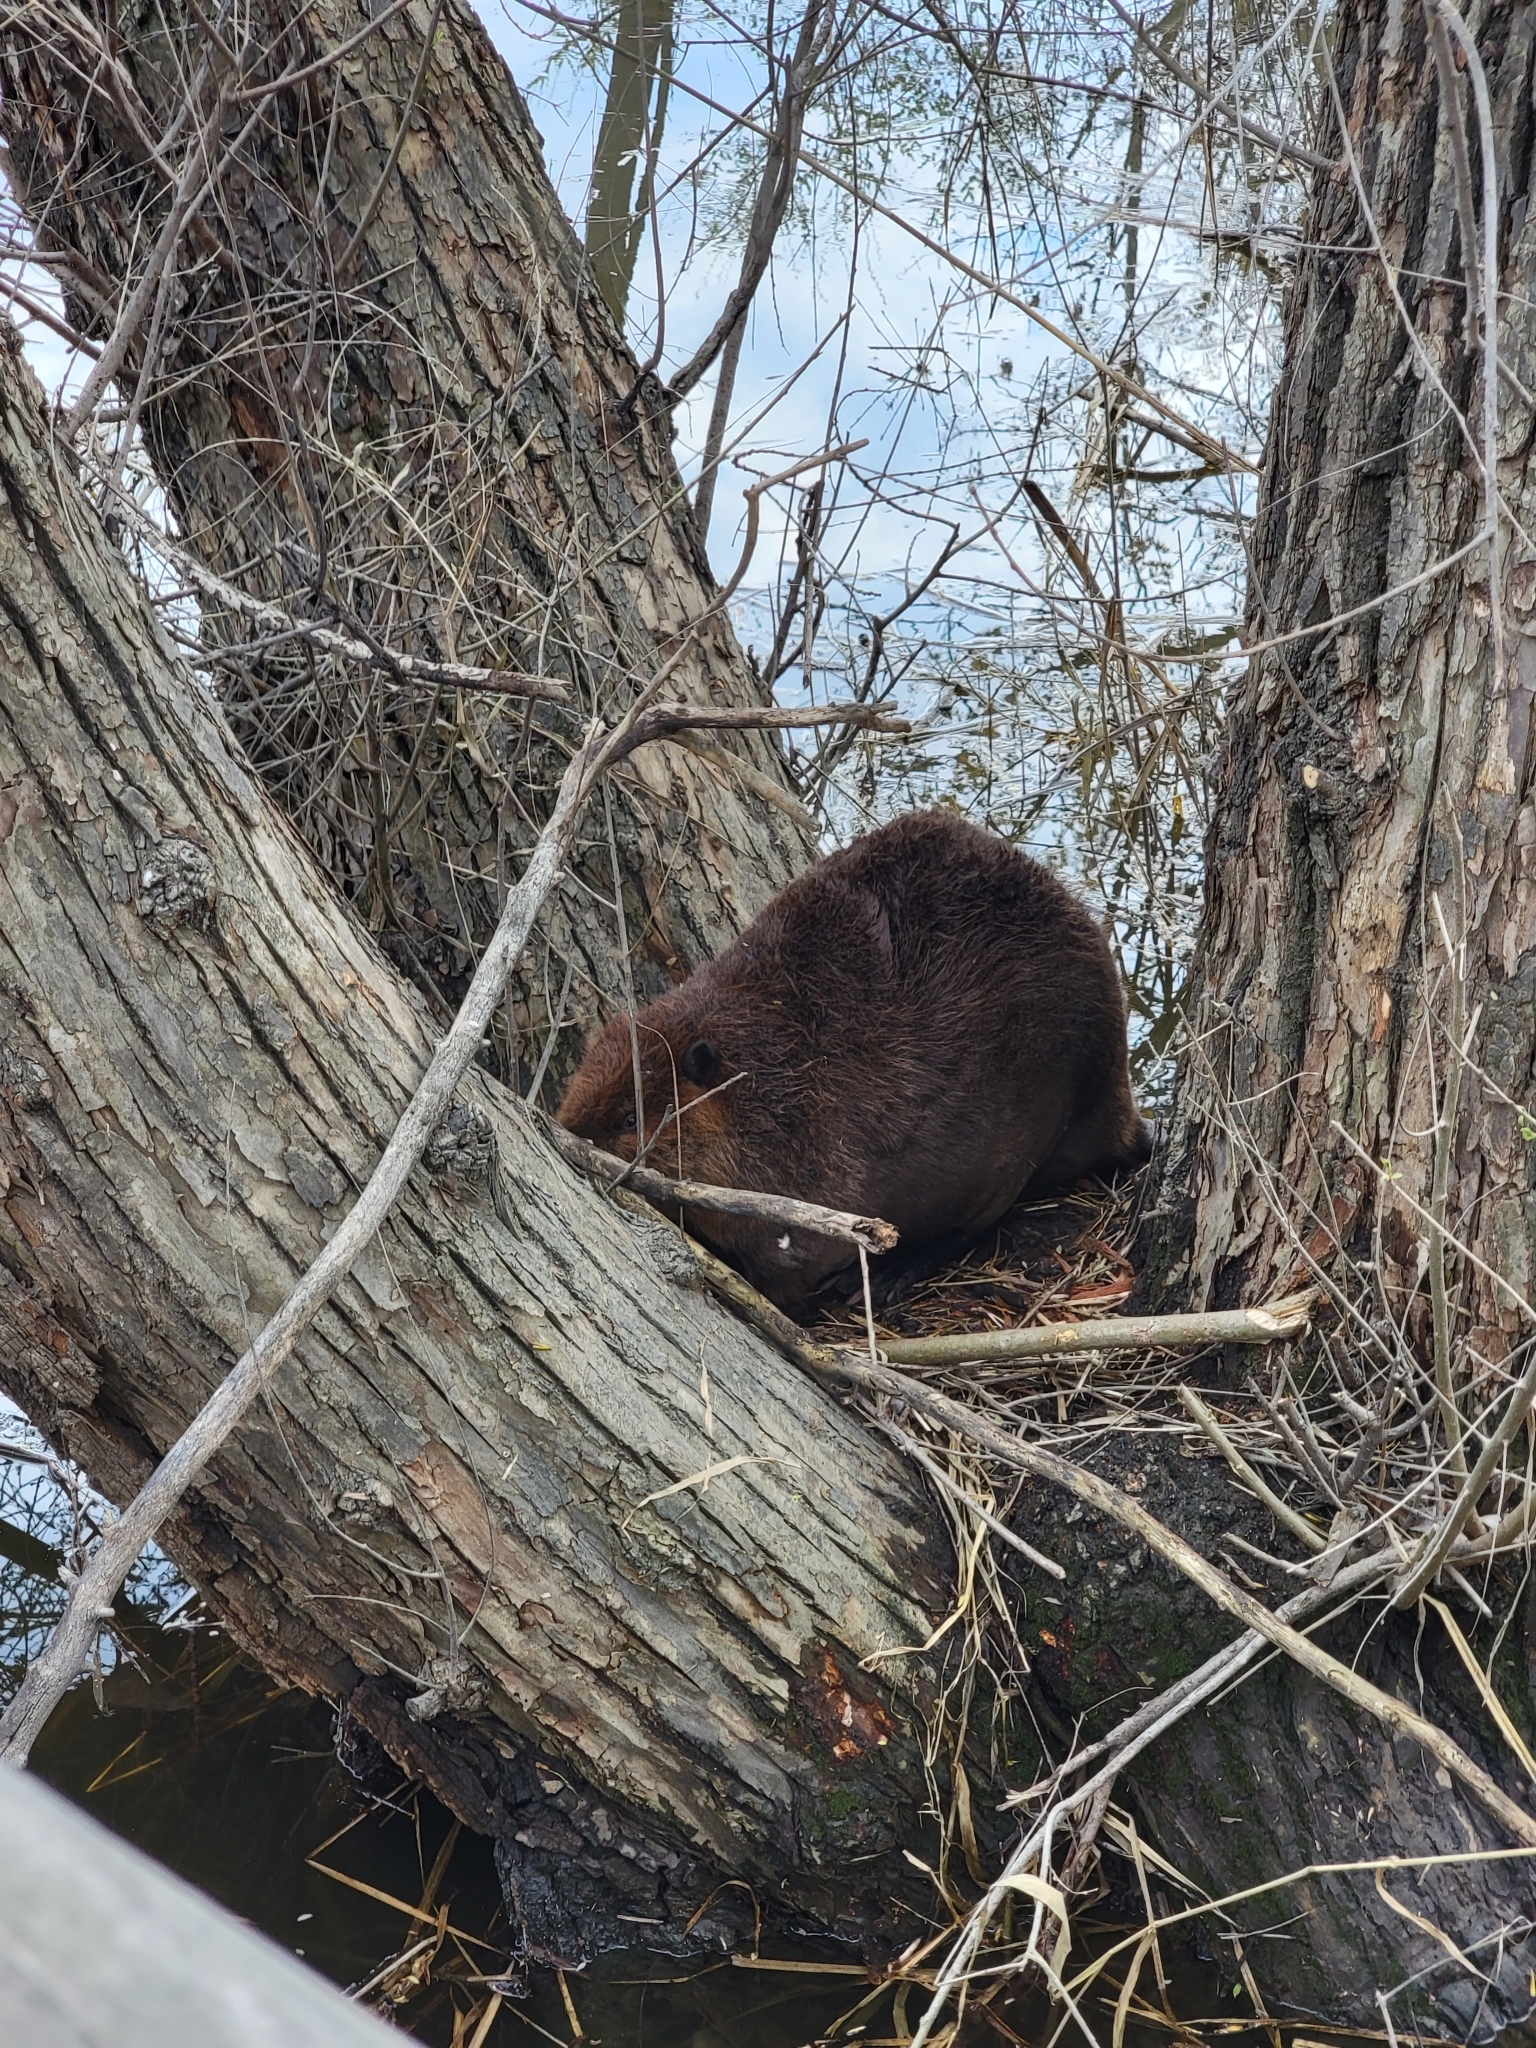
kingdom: Animalia
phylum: Chordata
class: Mammalia
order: Rodentia
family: Castoridae
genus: Castor
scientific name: Castor canadensis
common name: American beaver
